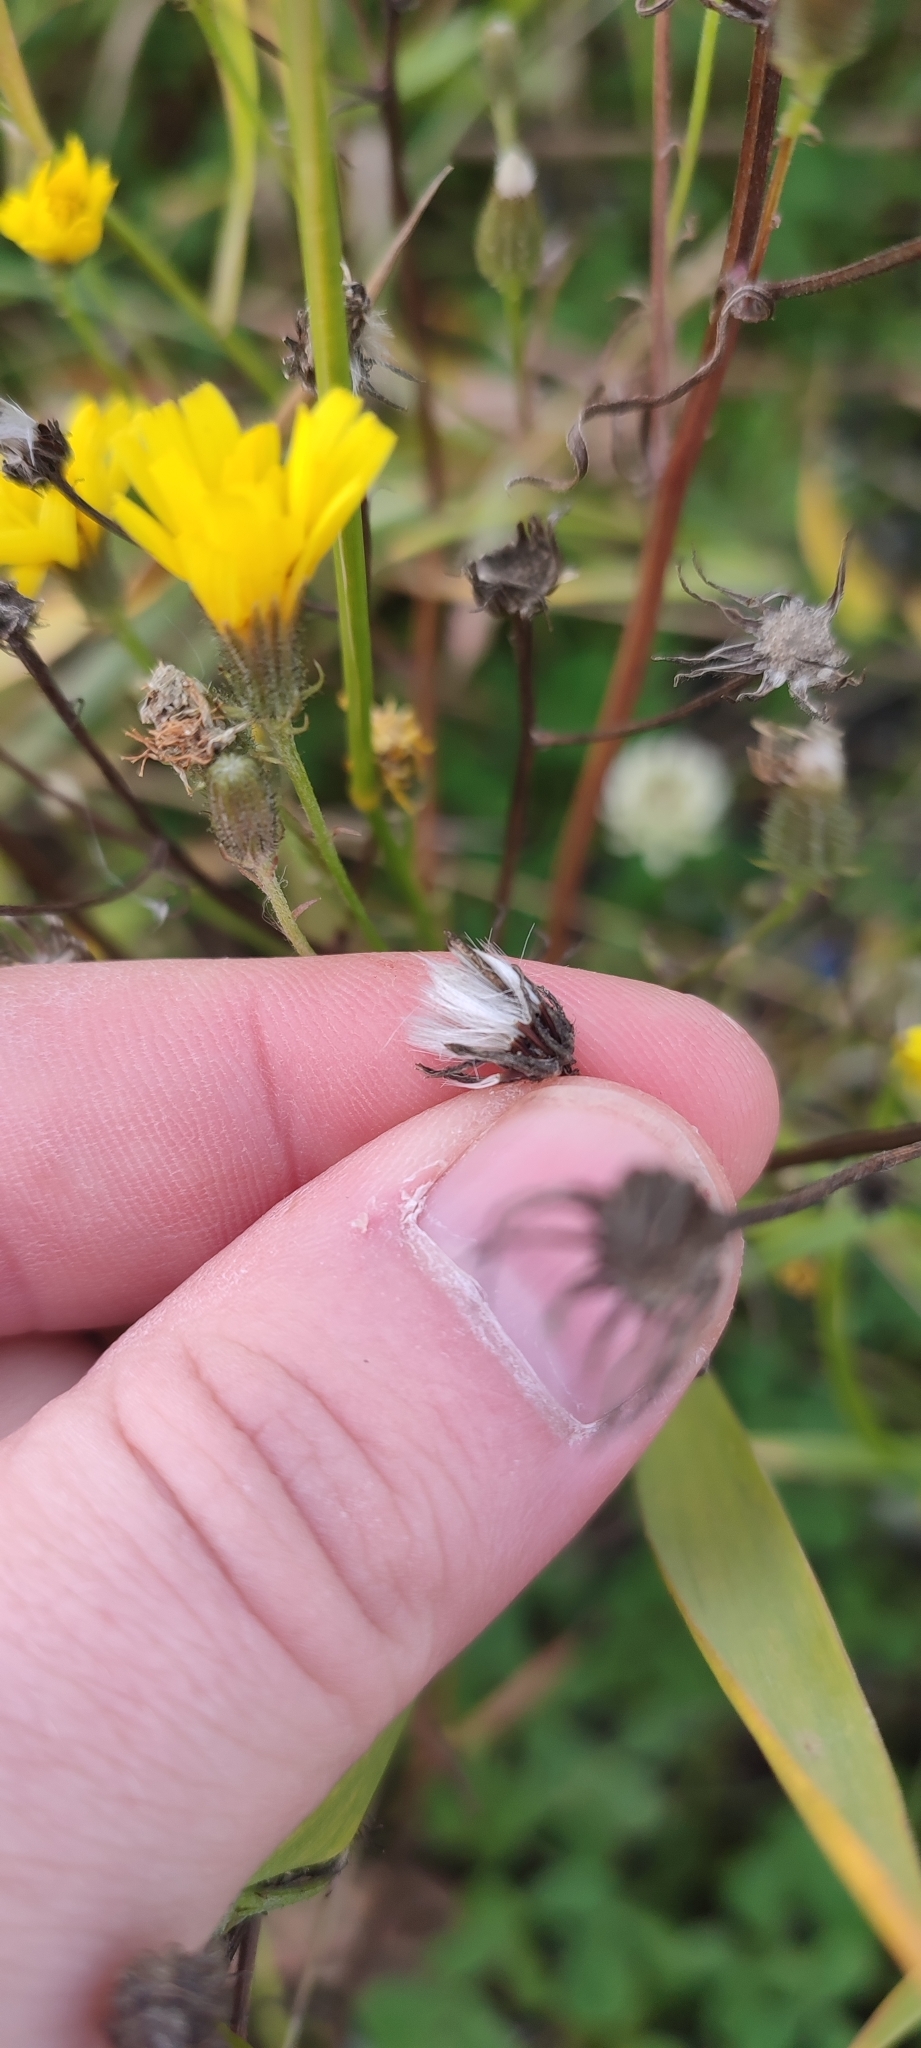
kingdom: Plantae
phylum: Tracheophyta
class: Magnoliopsida
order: Asterales
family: Asteraceae
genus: Crepis
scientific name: Crepis tectorum
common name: Narrow-leaved hawk's-beard
